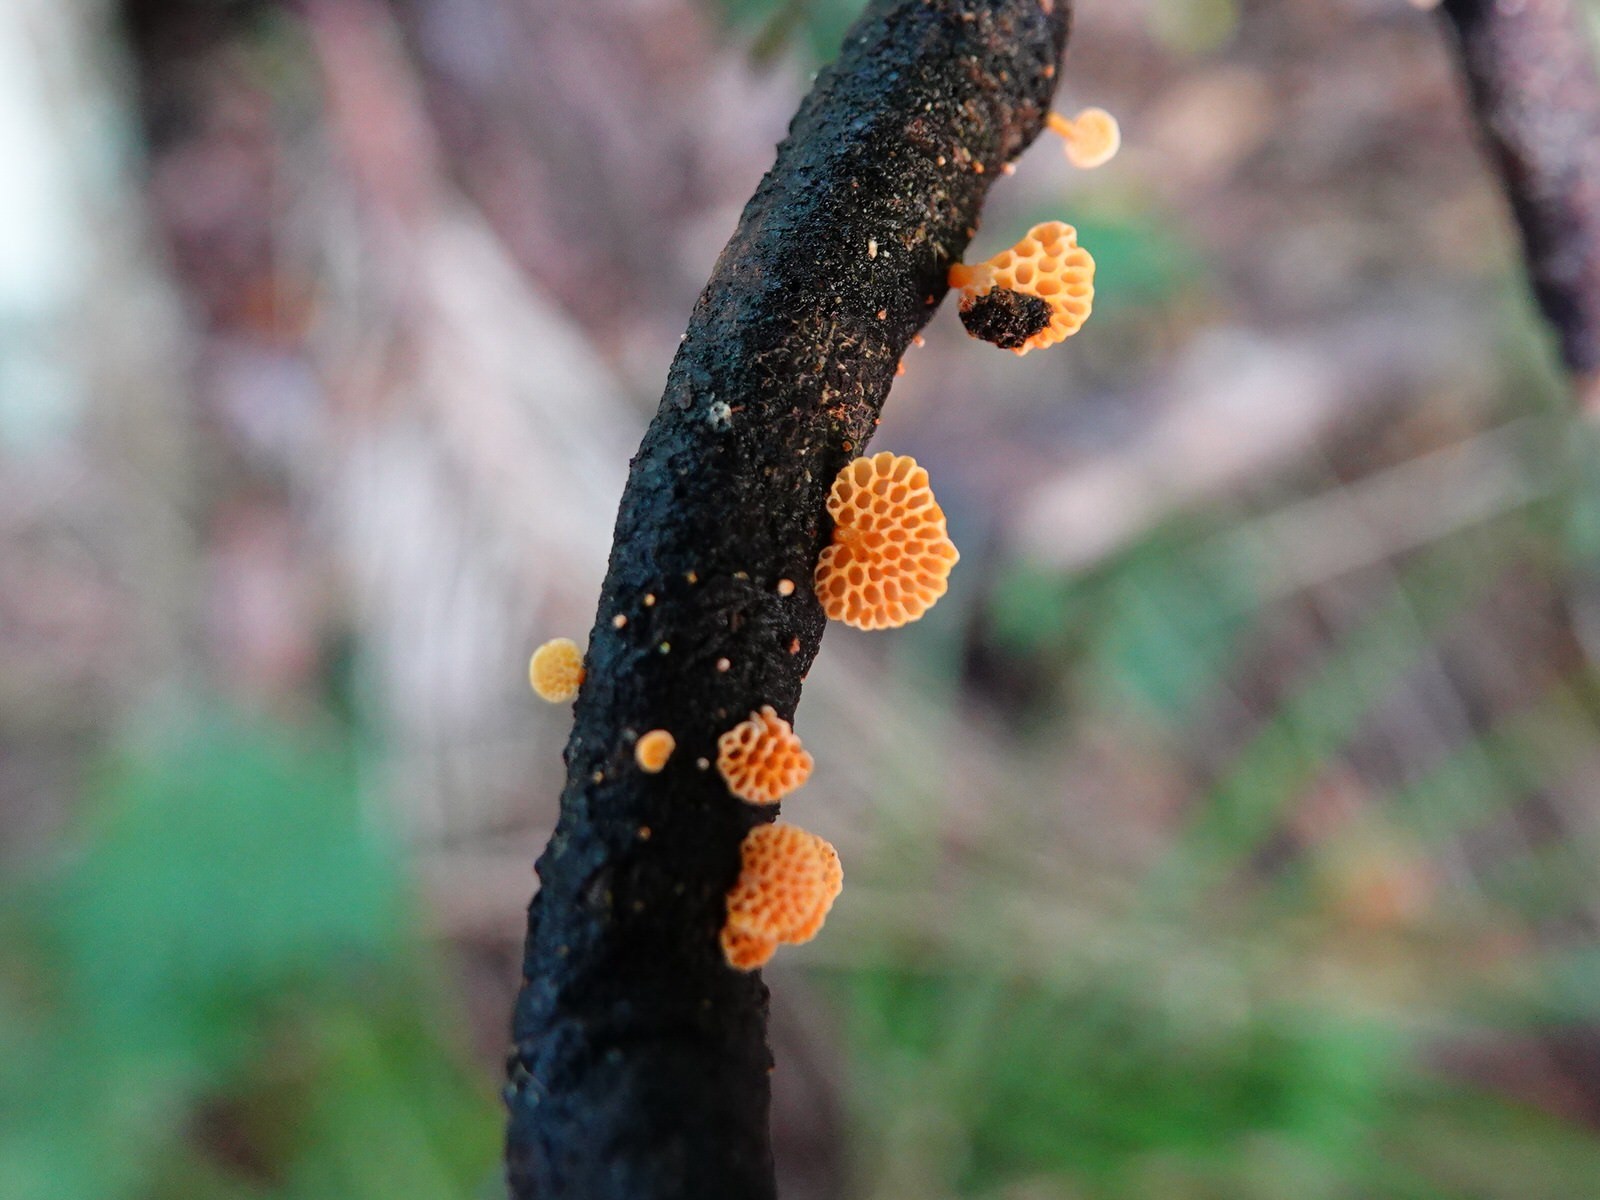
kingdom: Fungi
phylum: Basidiomycota
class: Agaricomycetes
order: Agaricales
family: Mycenaceae
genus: Favolaschia
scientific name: Favolaschia claudopus
